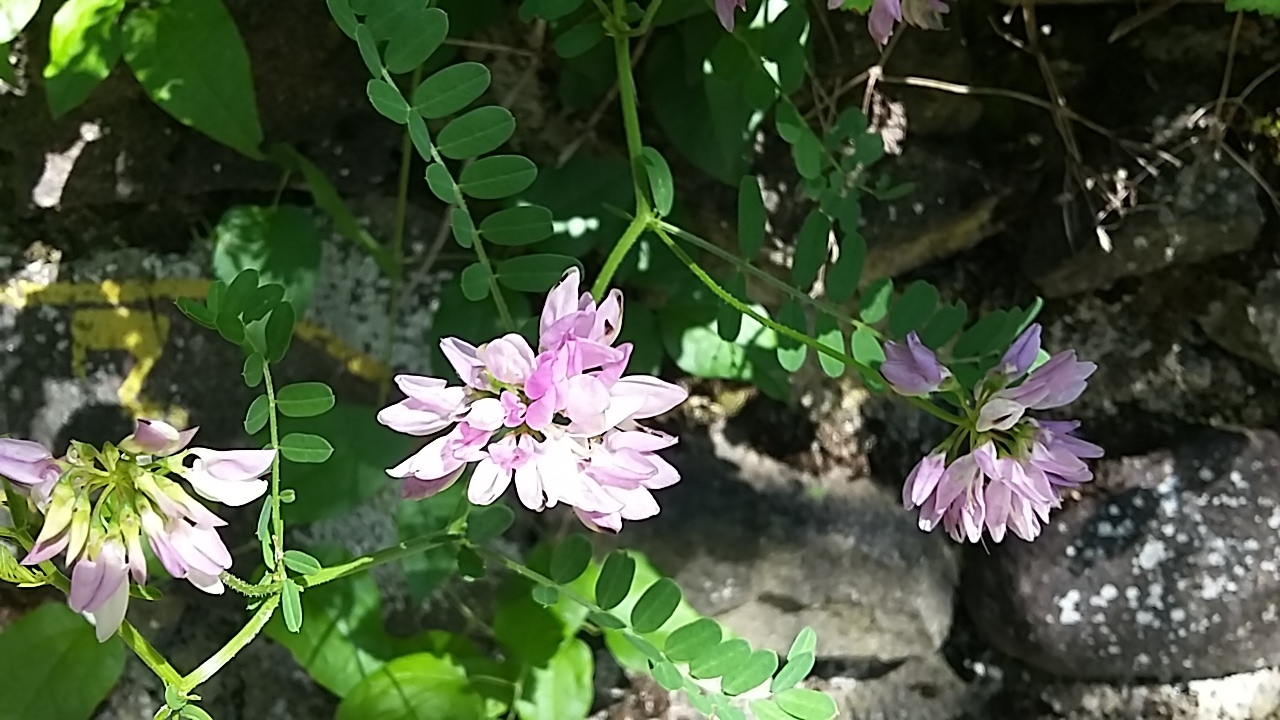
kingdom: Plantae
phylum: Tracheophyta
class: Magnoliopsida
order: Fabales
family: Fabaceae
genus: Coronilla
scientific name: Coronilla varia
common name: Crownvetch
